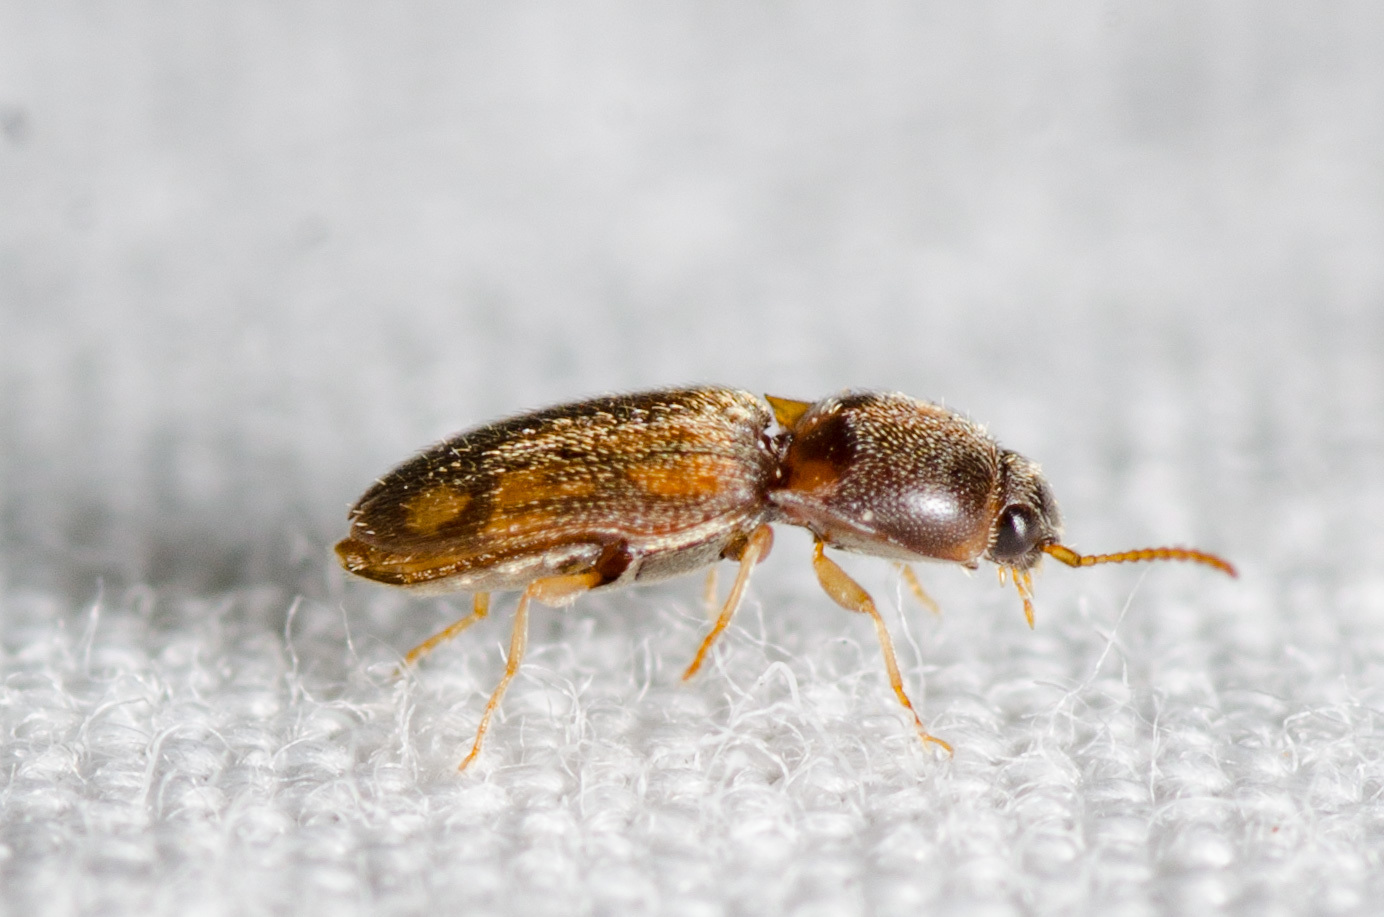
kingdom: Animalia
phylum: Arthropoda
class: Insecta
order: Coleoptera
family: Elateridae
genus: Monocrepidius
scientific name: Monocrepidius bellus
